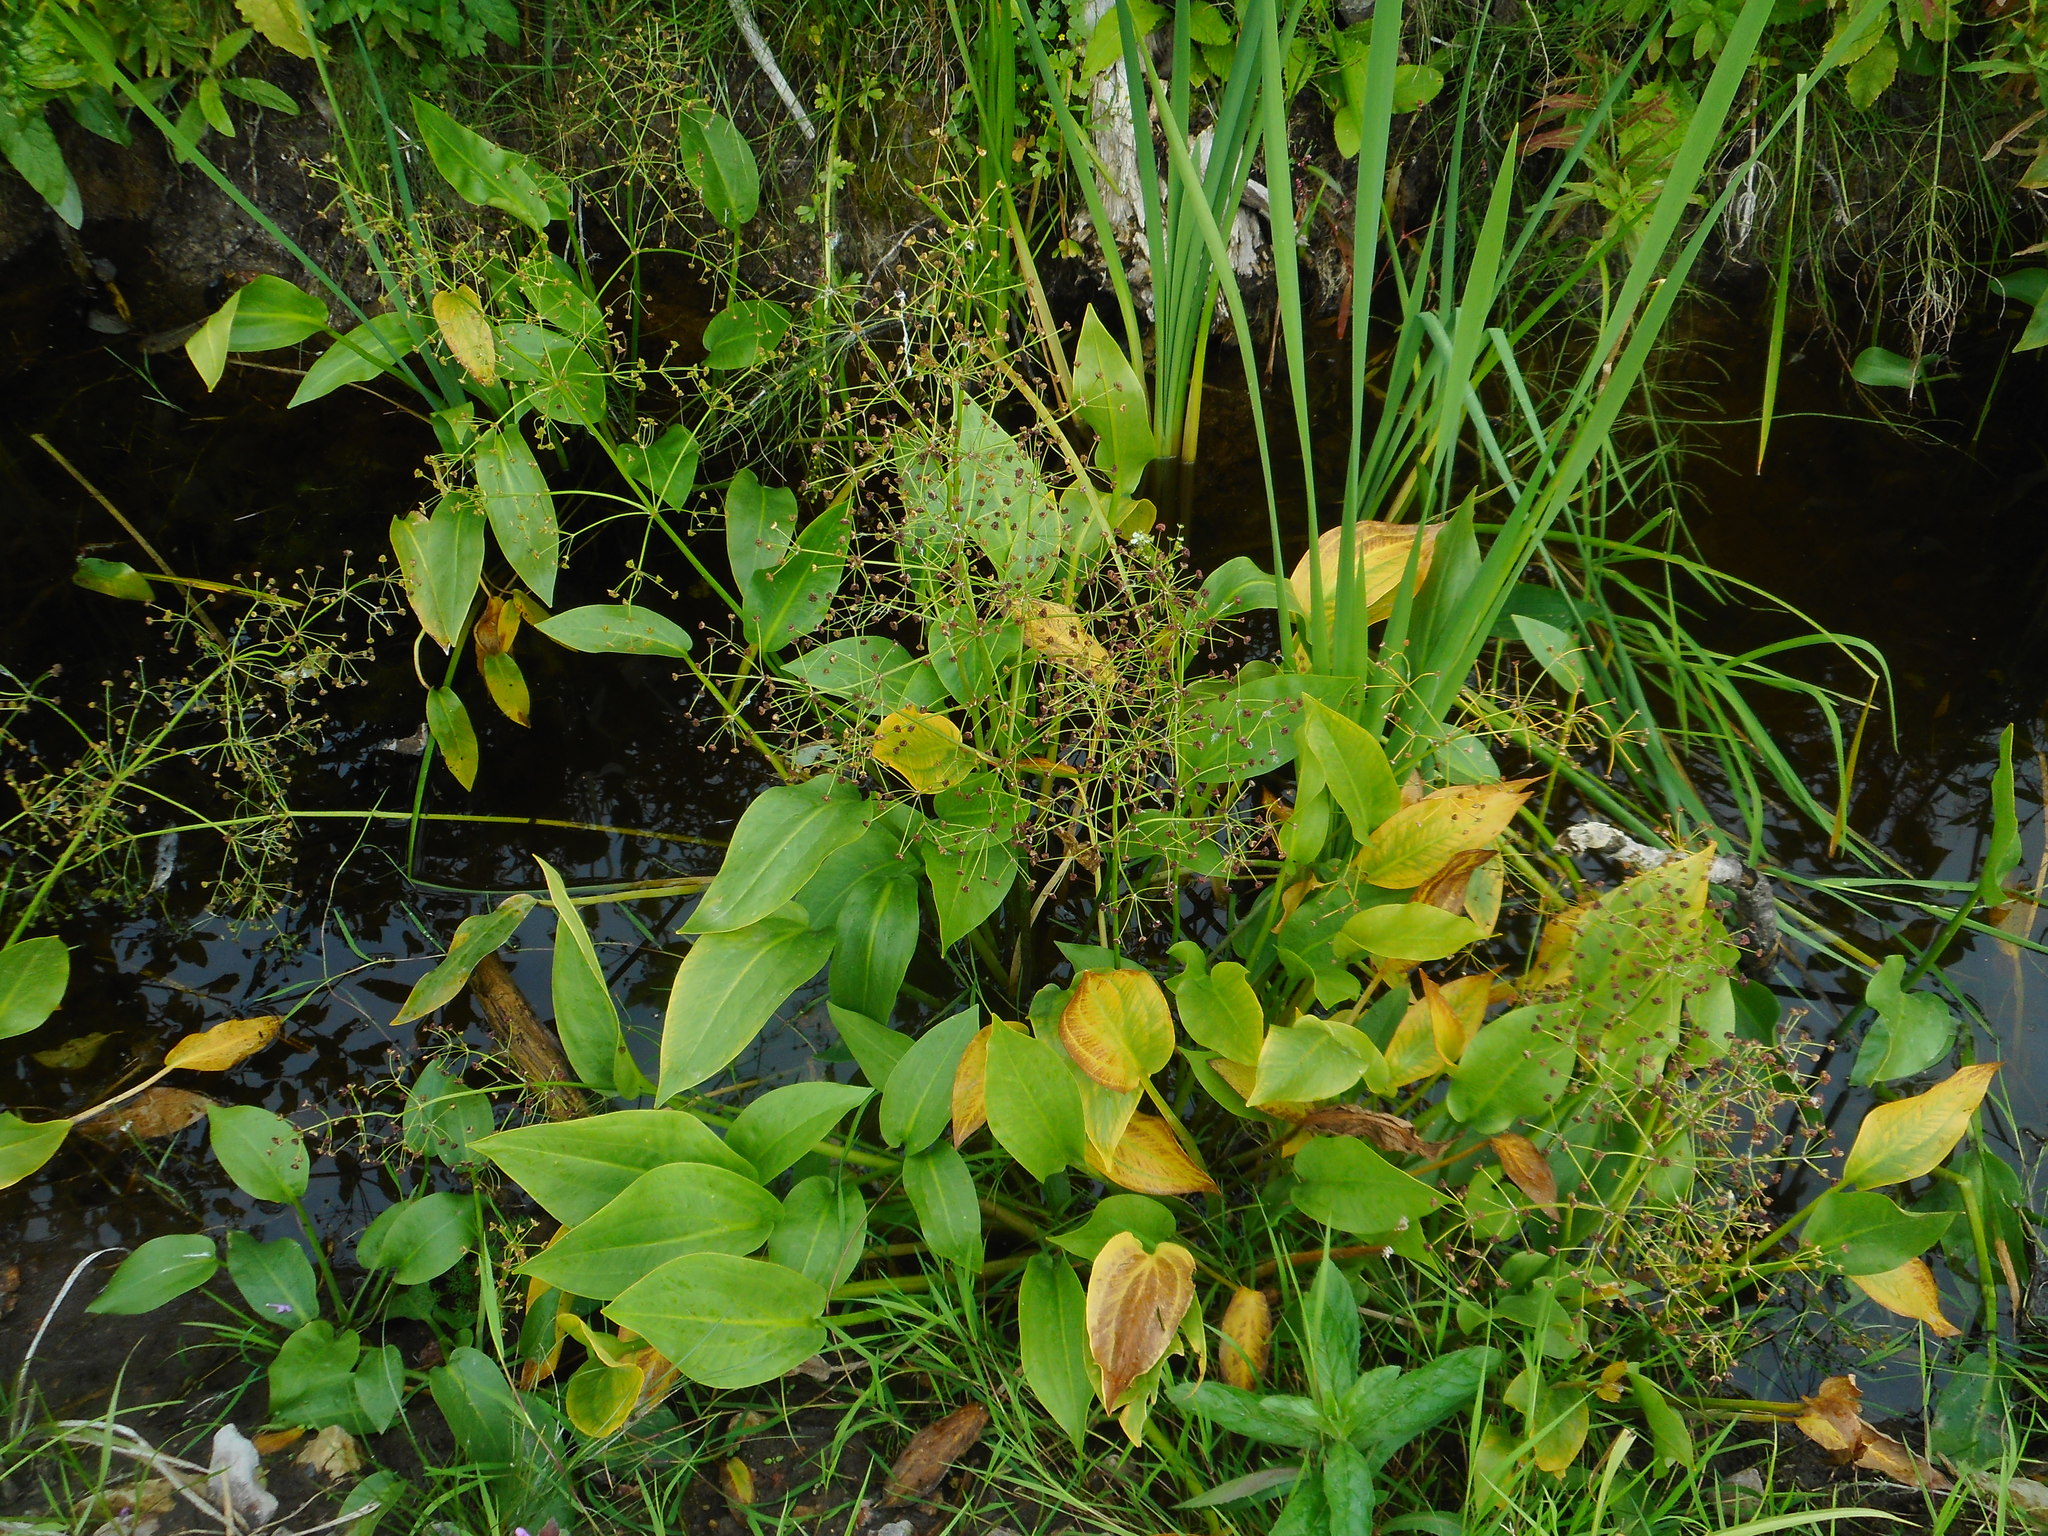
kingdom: Plantae
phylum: Tracheophyta
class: Liliopsida
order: Alismatales
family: Alismataceae
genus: Alisma
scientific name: Alisma plantago-aquatica
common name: Water-plantain
